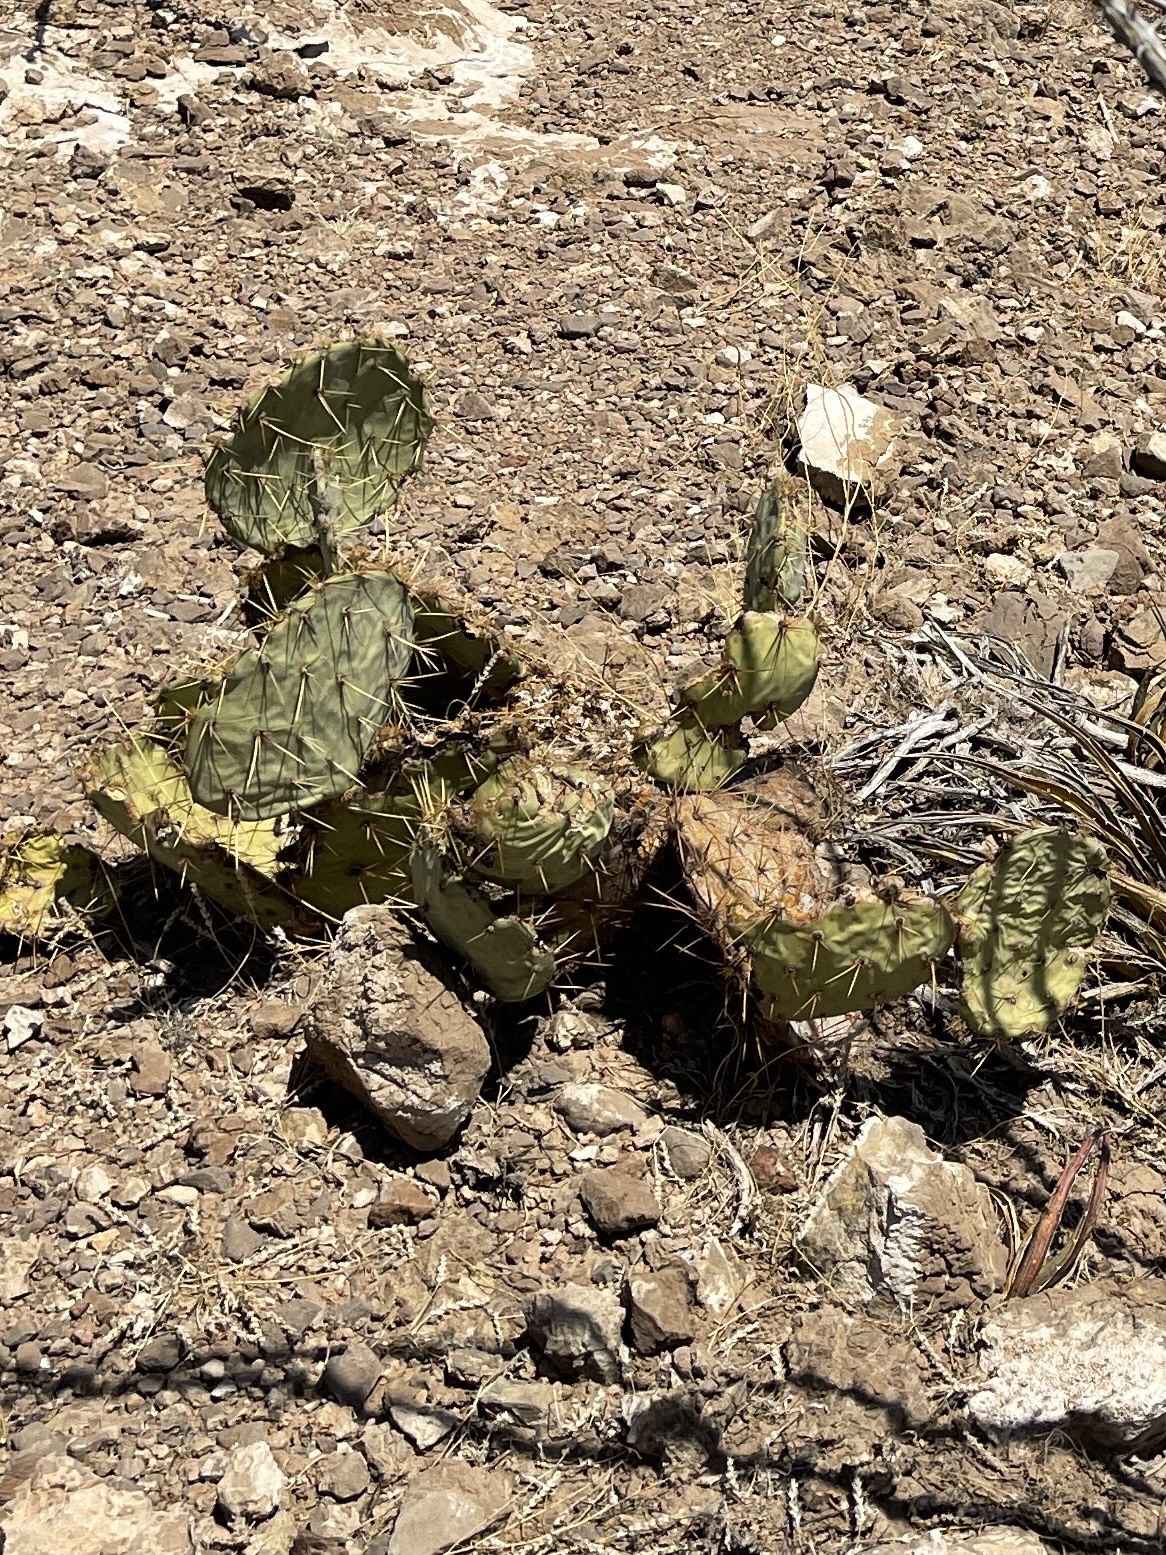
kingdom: Plantae
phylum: Tracheophyta
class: Magnoliopsida
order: Caryophyllales
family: Cactaceae
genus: Opuntia
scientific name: Opuntia engelmannii
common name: Cactus-apple
